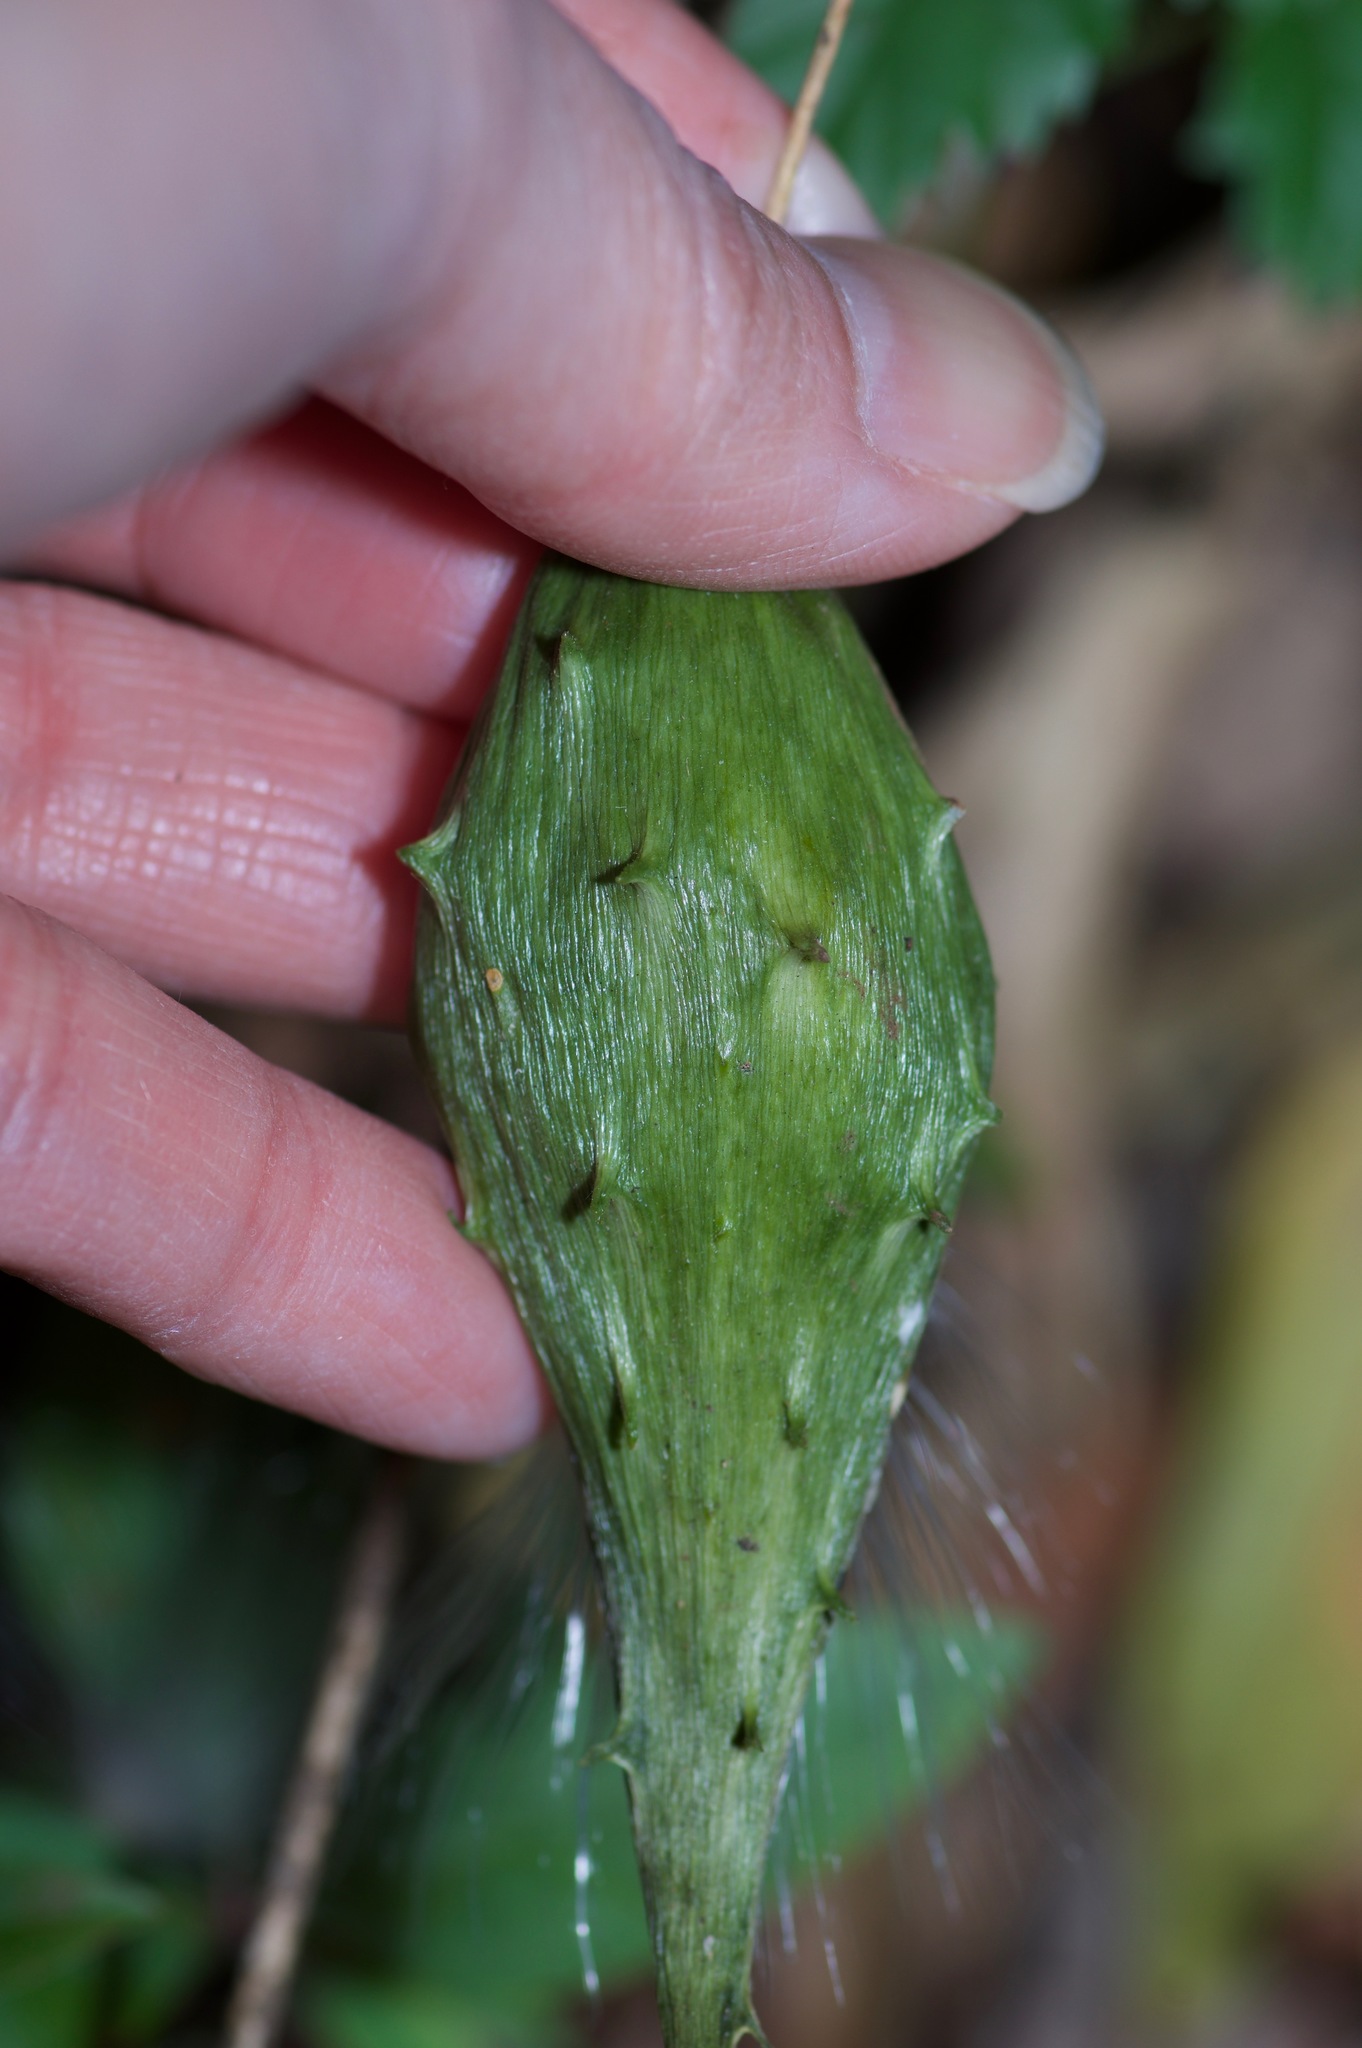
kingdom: Plantae
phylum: Tracheophyta
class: Magnoliopsida
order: Gentianales
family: Apocynaceae
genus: Dictyanthus
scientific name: Dictyanthus reticulatus
